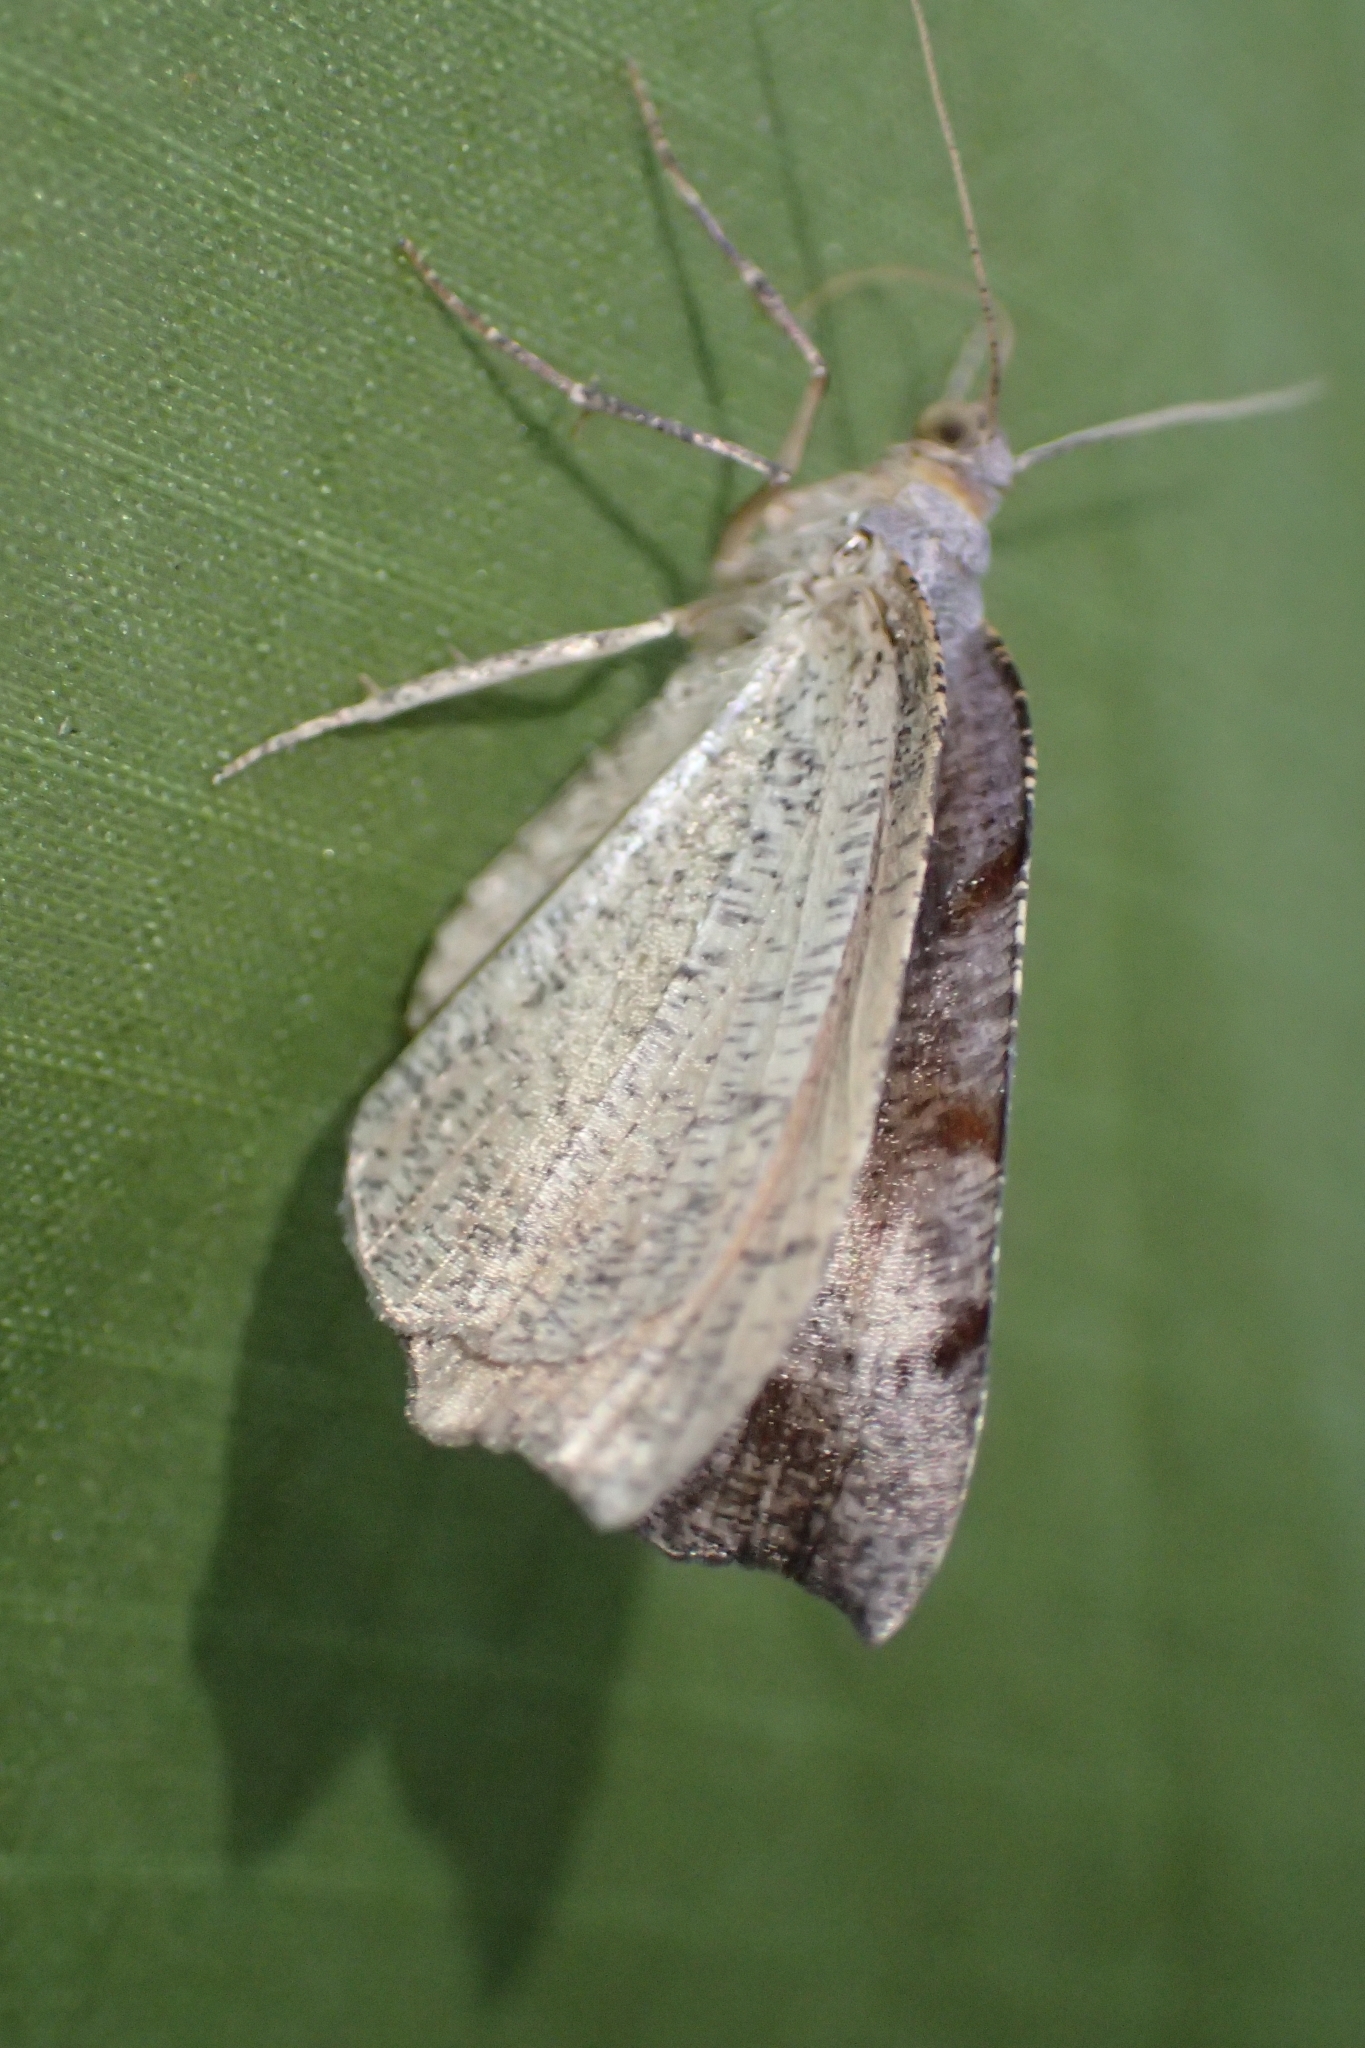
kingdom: Animalia
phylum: Arthropoda
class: Insecta
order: Lepidoptera
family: Geometridae
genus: Sestra
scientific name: Sestra flexata
